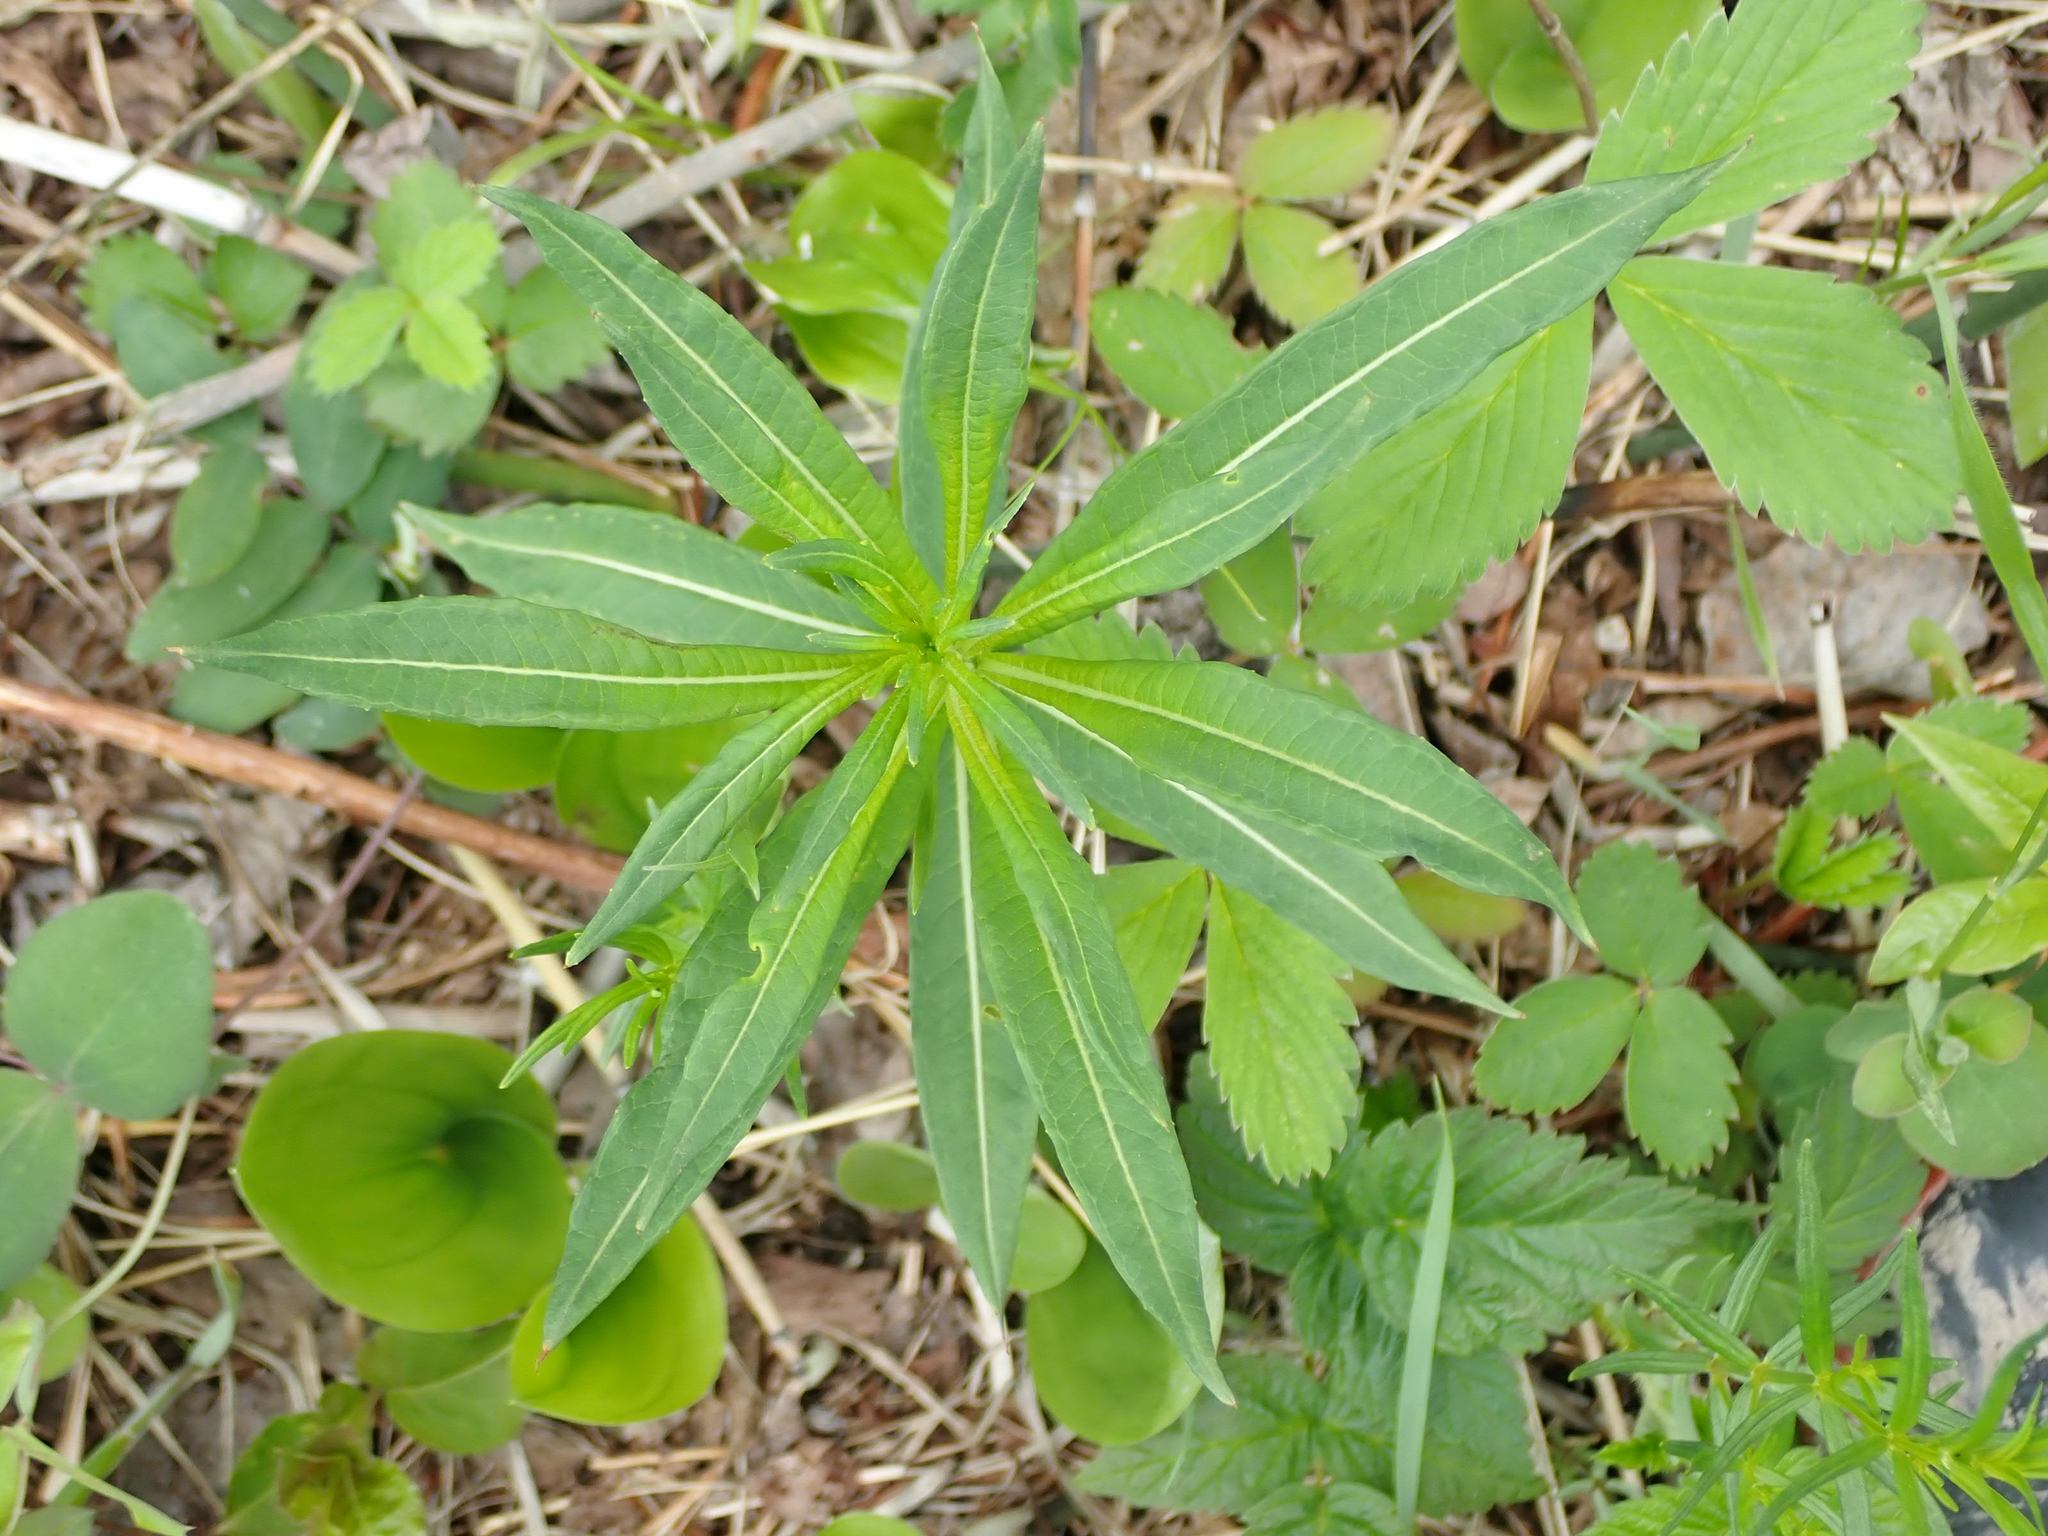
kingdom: Plantae
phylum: Tracheophyta
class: Magnoliopsida
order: Myrtales
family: Onagraceae
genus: Chamaenerion
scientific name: Chamaenerion angustifolium
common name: Fireweed
